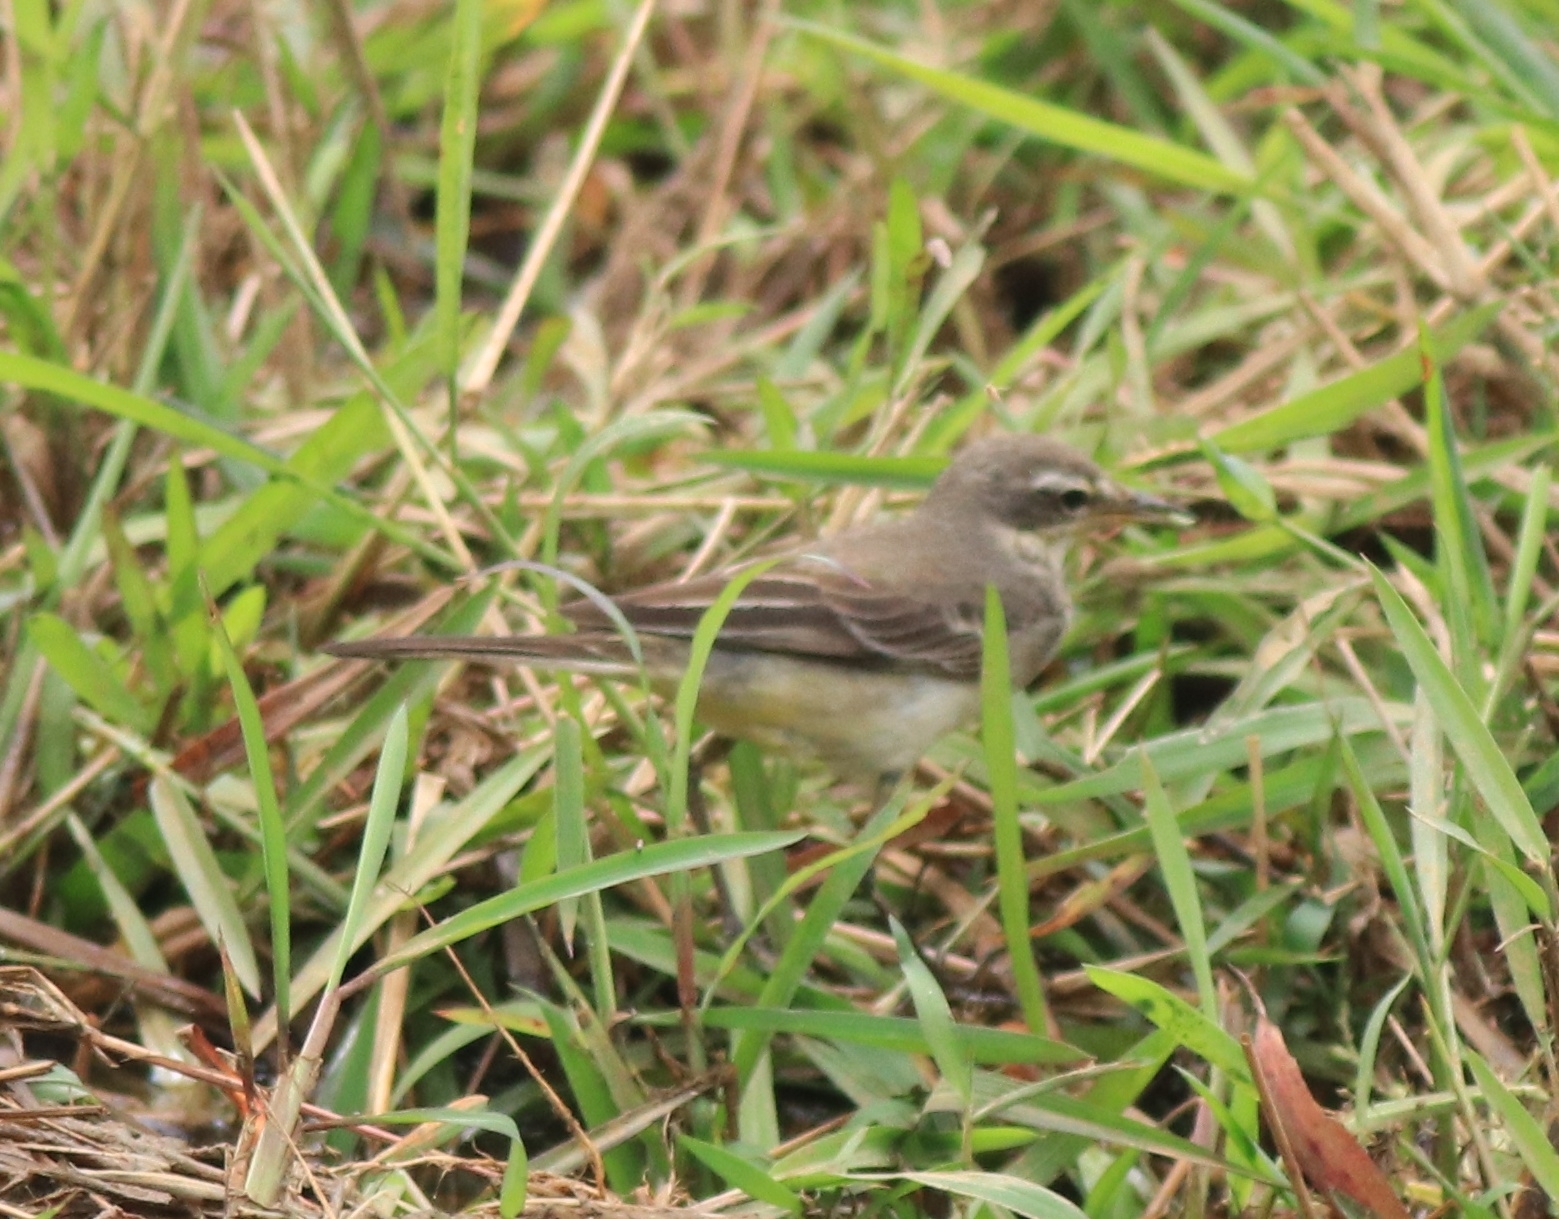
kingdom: Animalia
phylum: Chordata
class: Aves
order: Passeriformes
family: Motacillidae
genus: Motacilla
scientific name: Motacilla tschutschensis
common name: Eastern yellow wagtail
